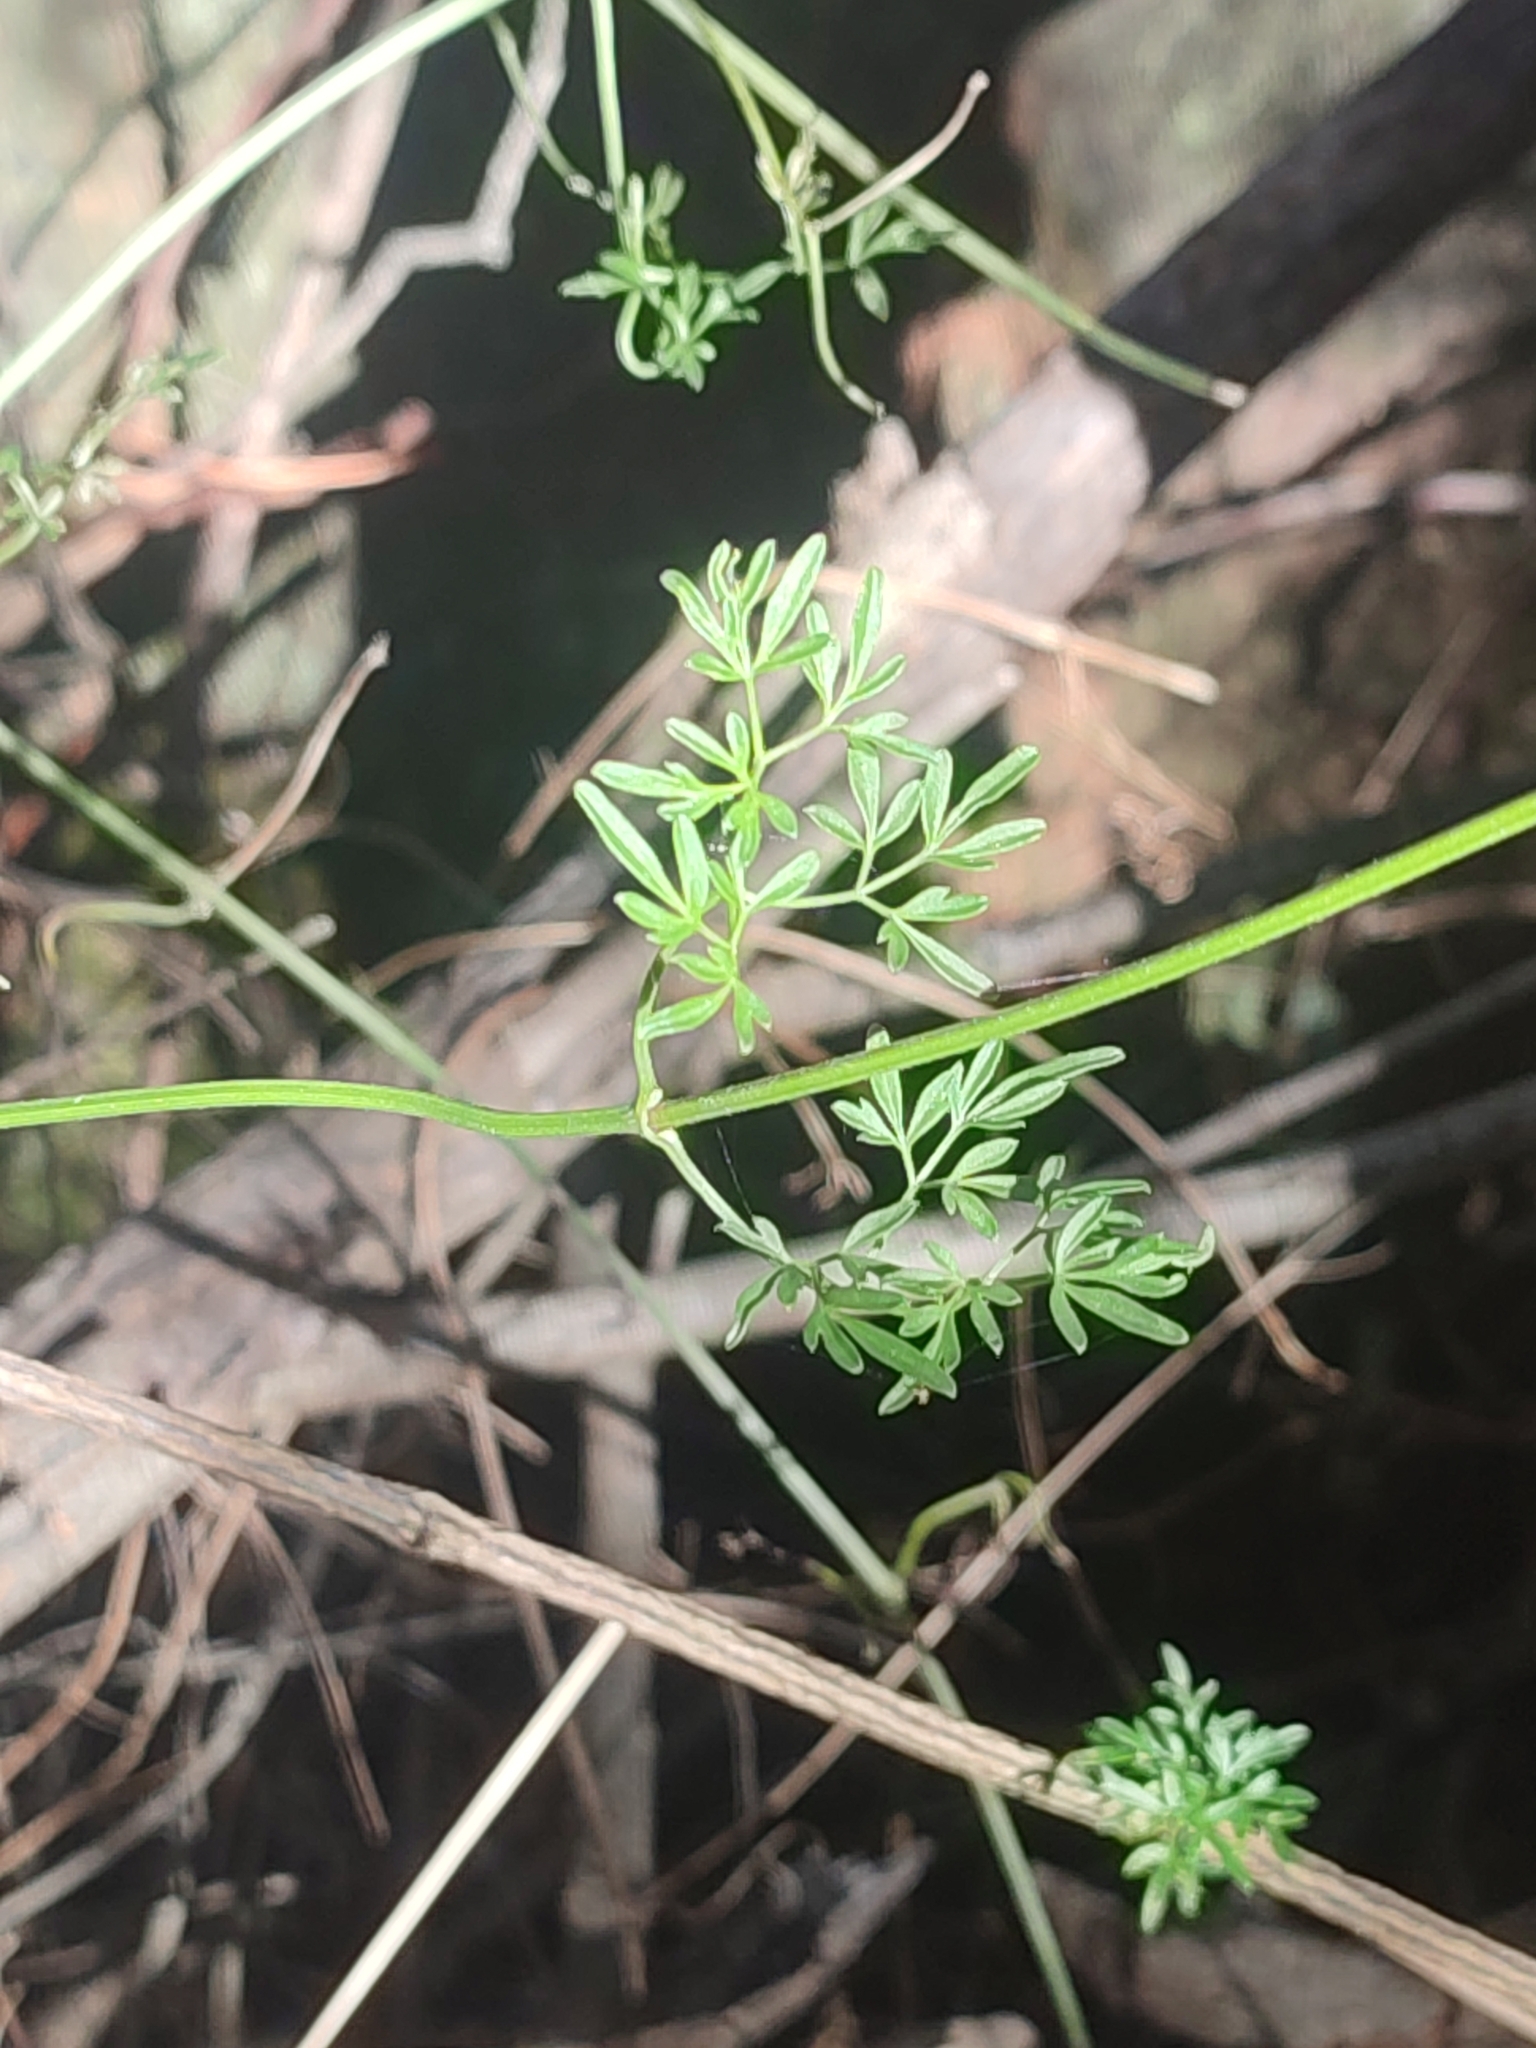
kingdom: Plantae
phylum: Tracheophyta
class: Magnoliopsida
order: Ranunculales
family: Ranunculaceae
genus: Clematis
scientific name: Clematis leptophylla
